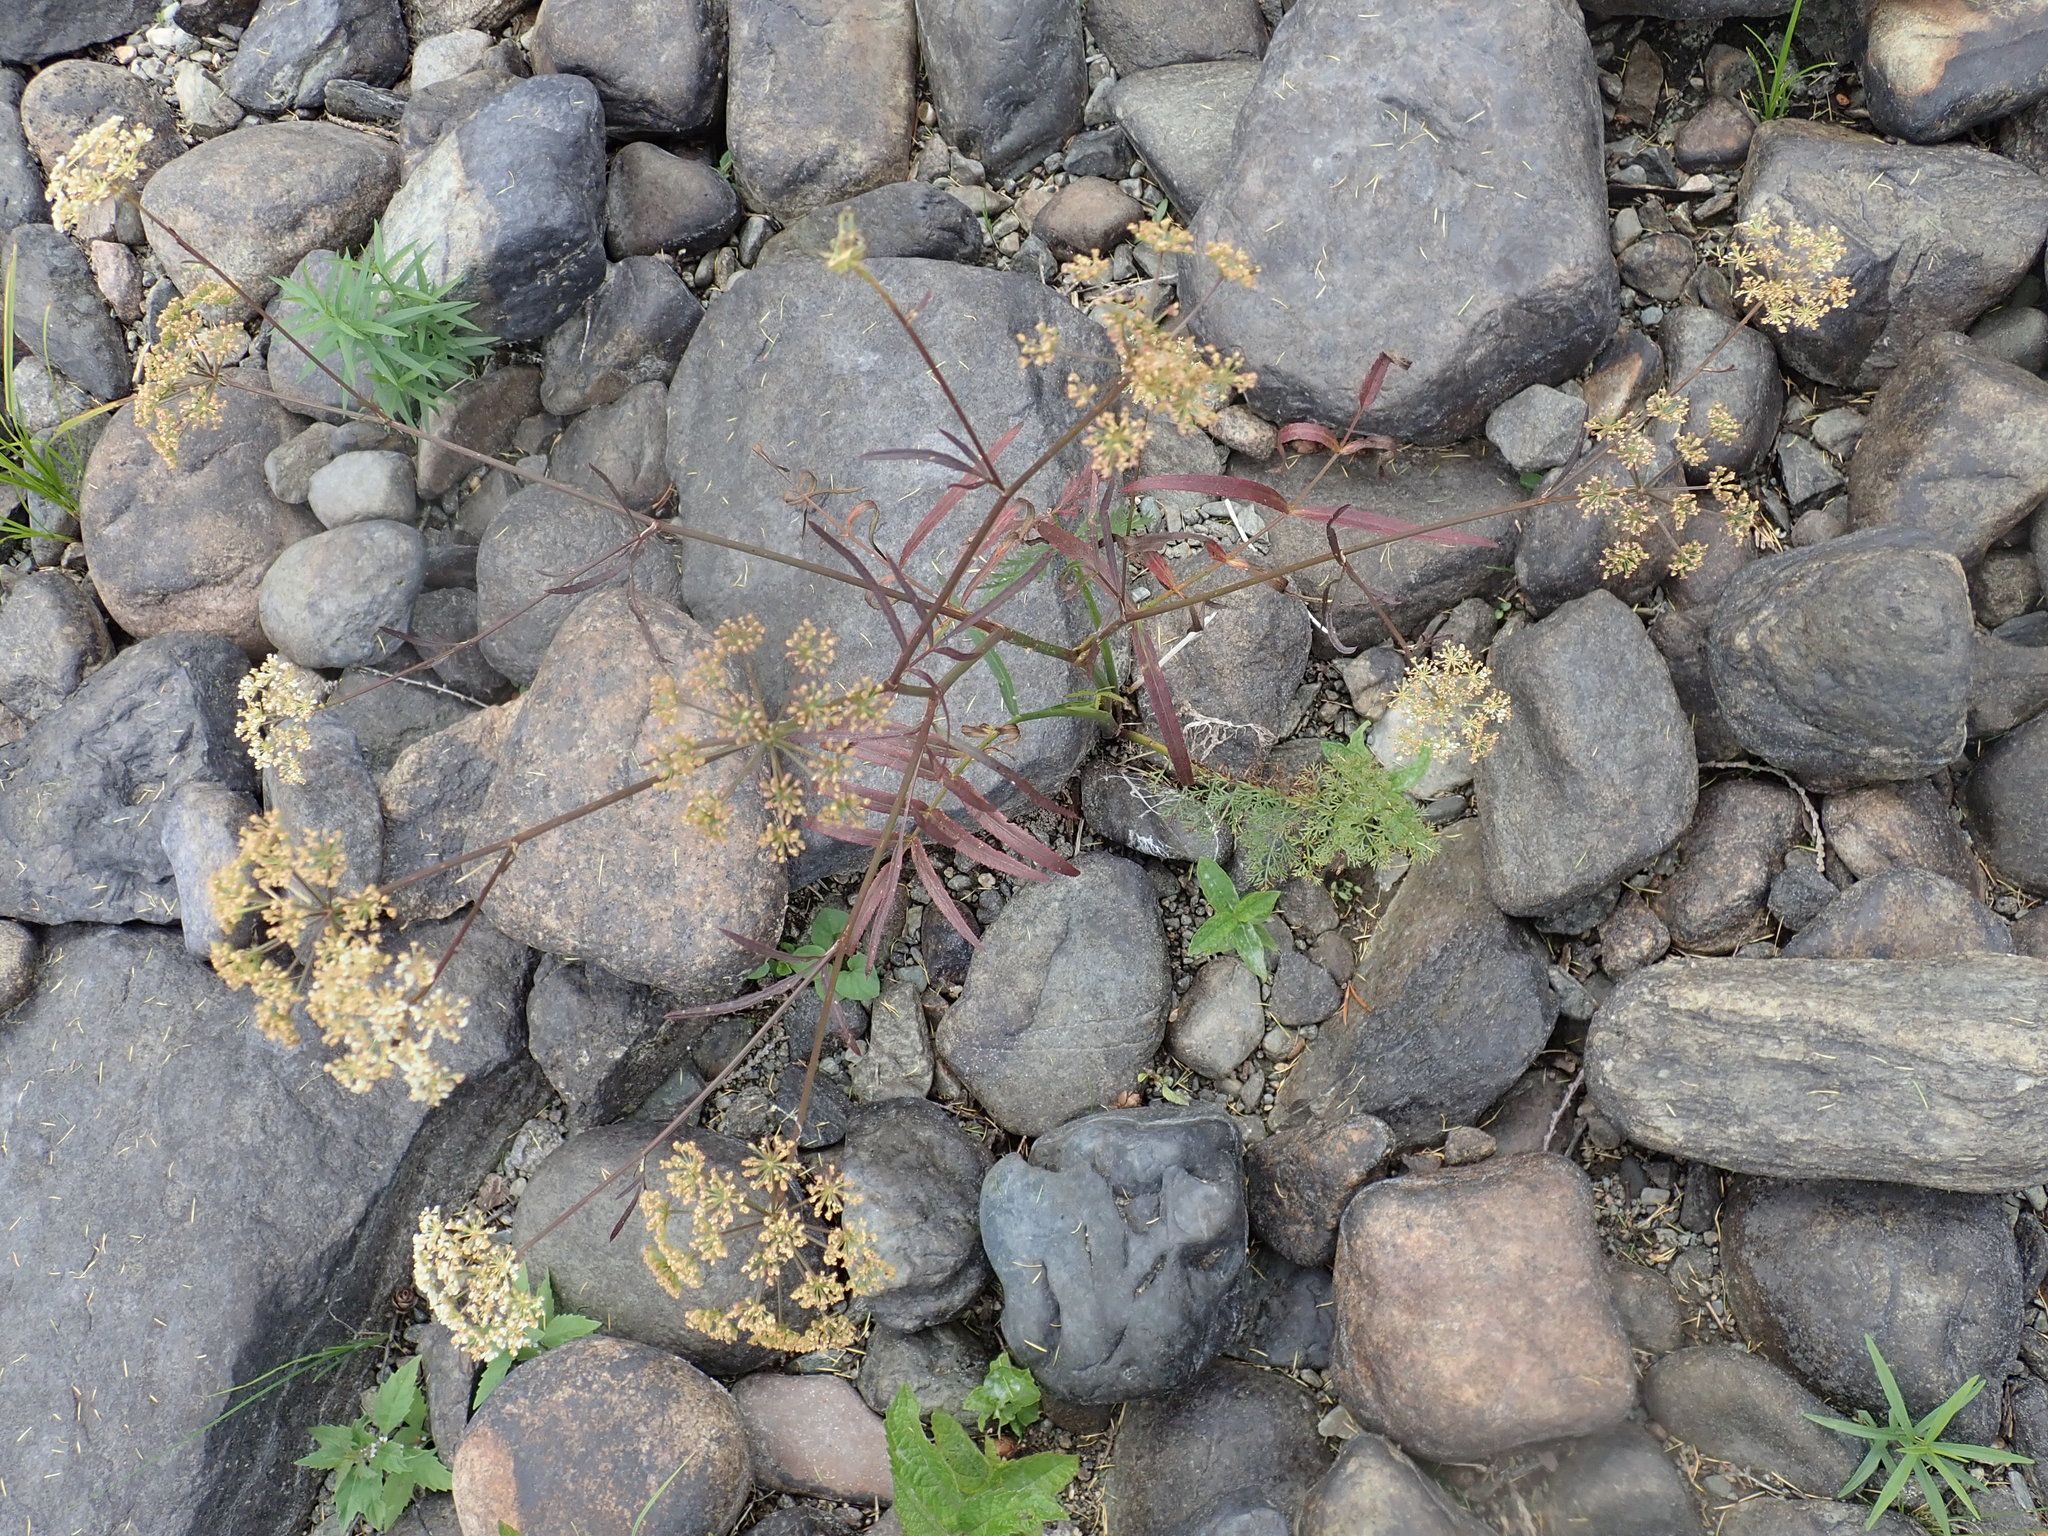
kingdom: Plantae
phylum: Tracheophyta
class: Magnoliopsida
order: Apiales
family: Apiaceae
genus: Sium
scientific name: Sium suave
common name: Hemlock water-parsnip
